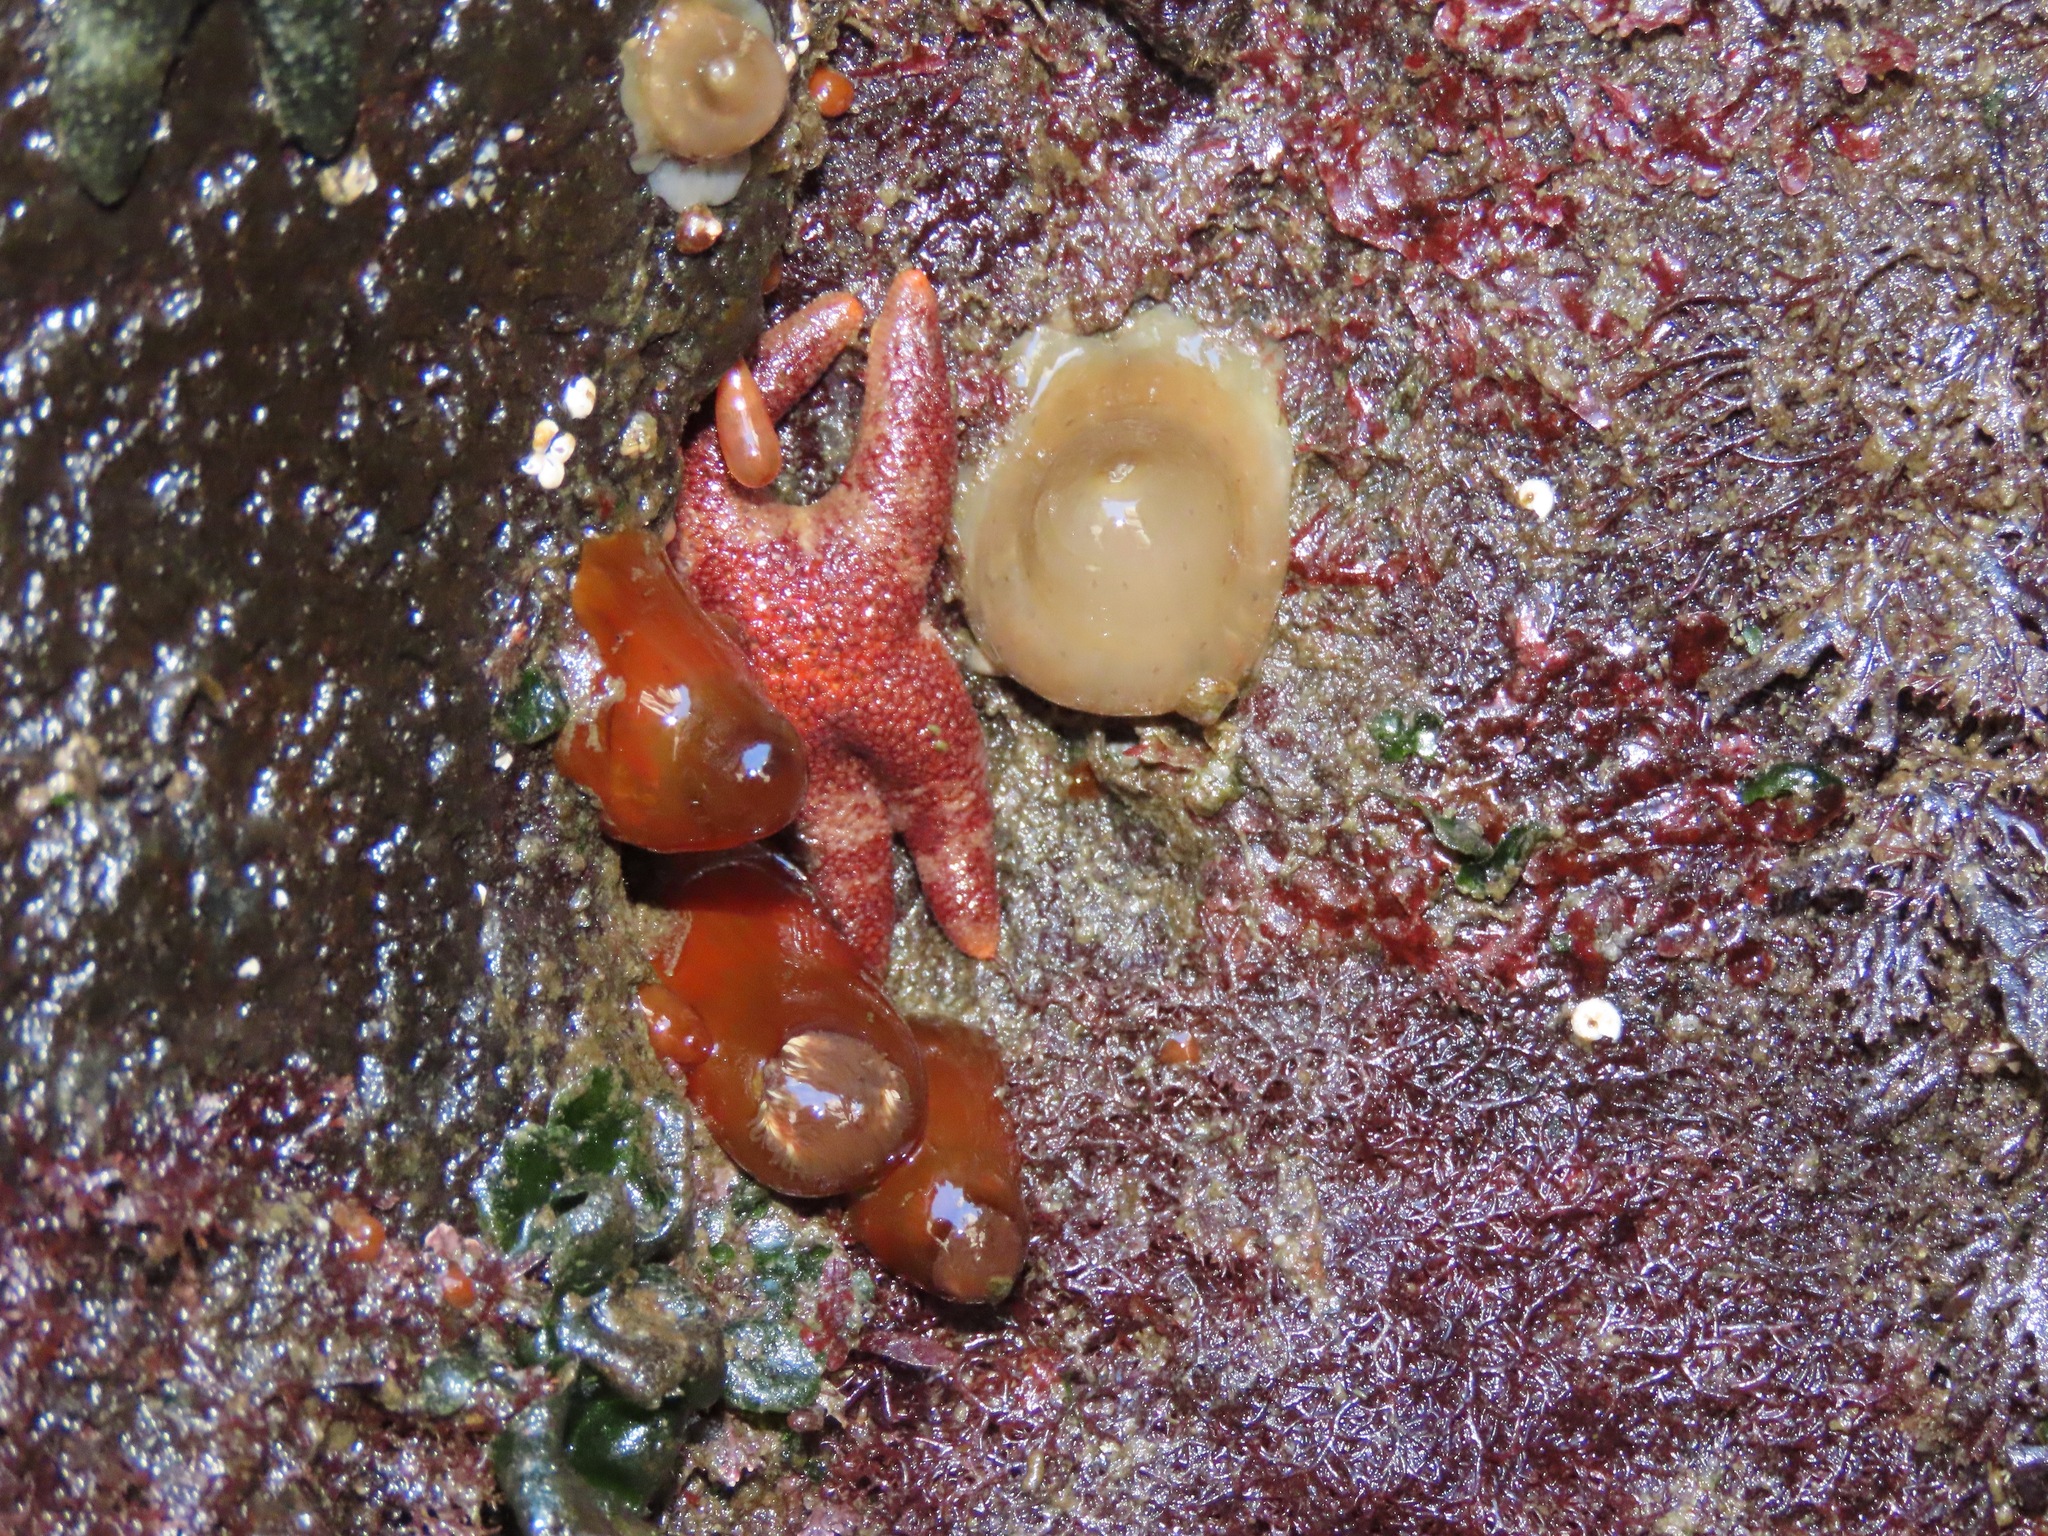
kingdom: Animalia
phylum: Echinodermata
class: Asteroidea
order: Spinulosida
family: Echinasteridae
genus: Henricia
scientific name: Henricia pumila
